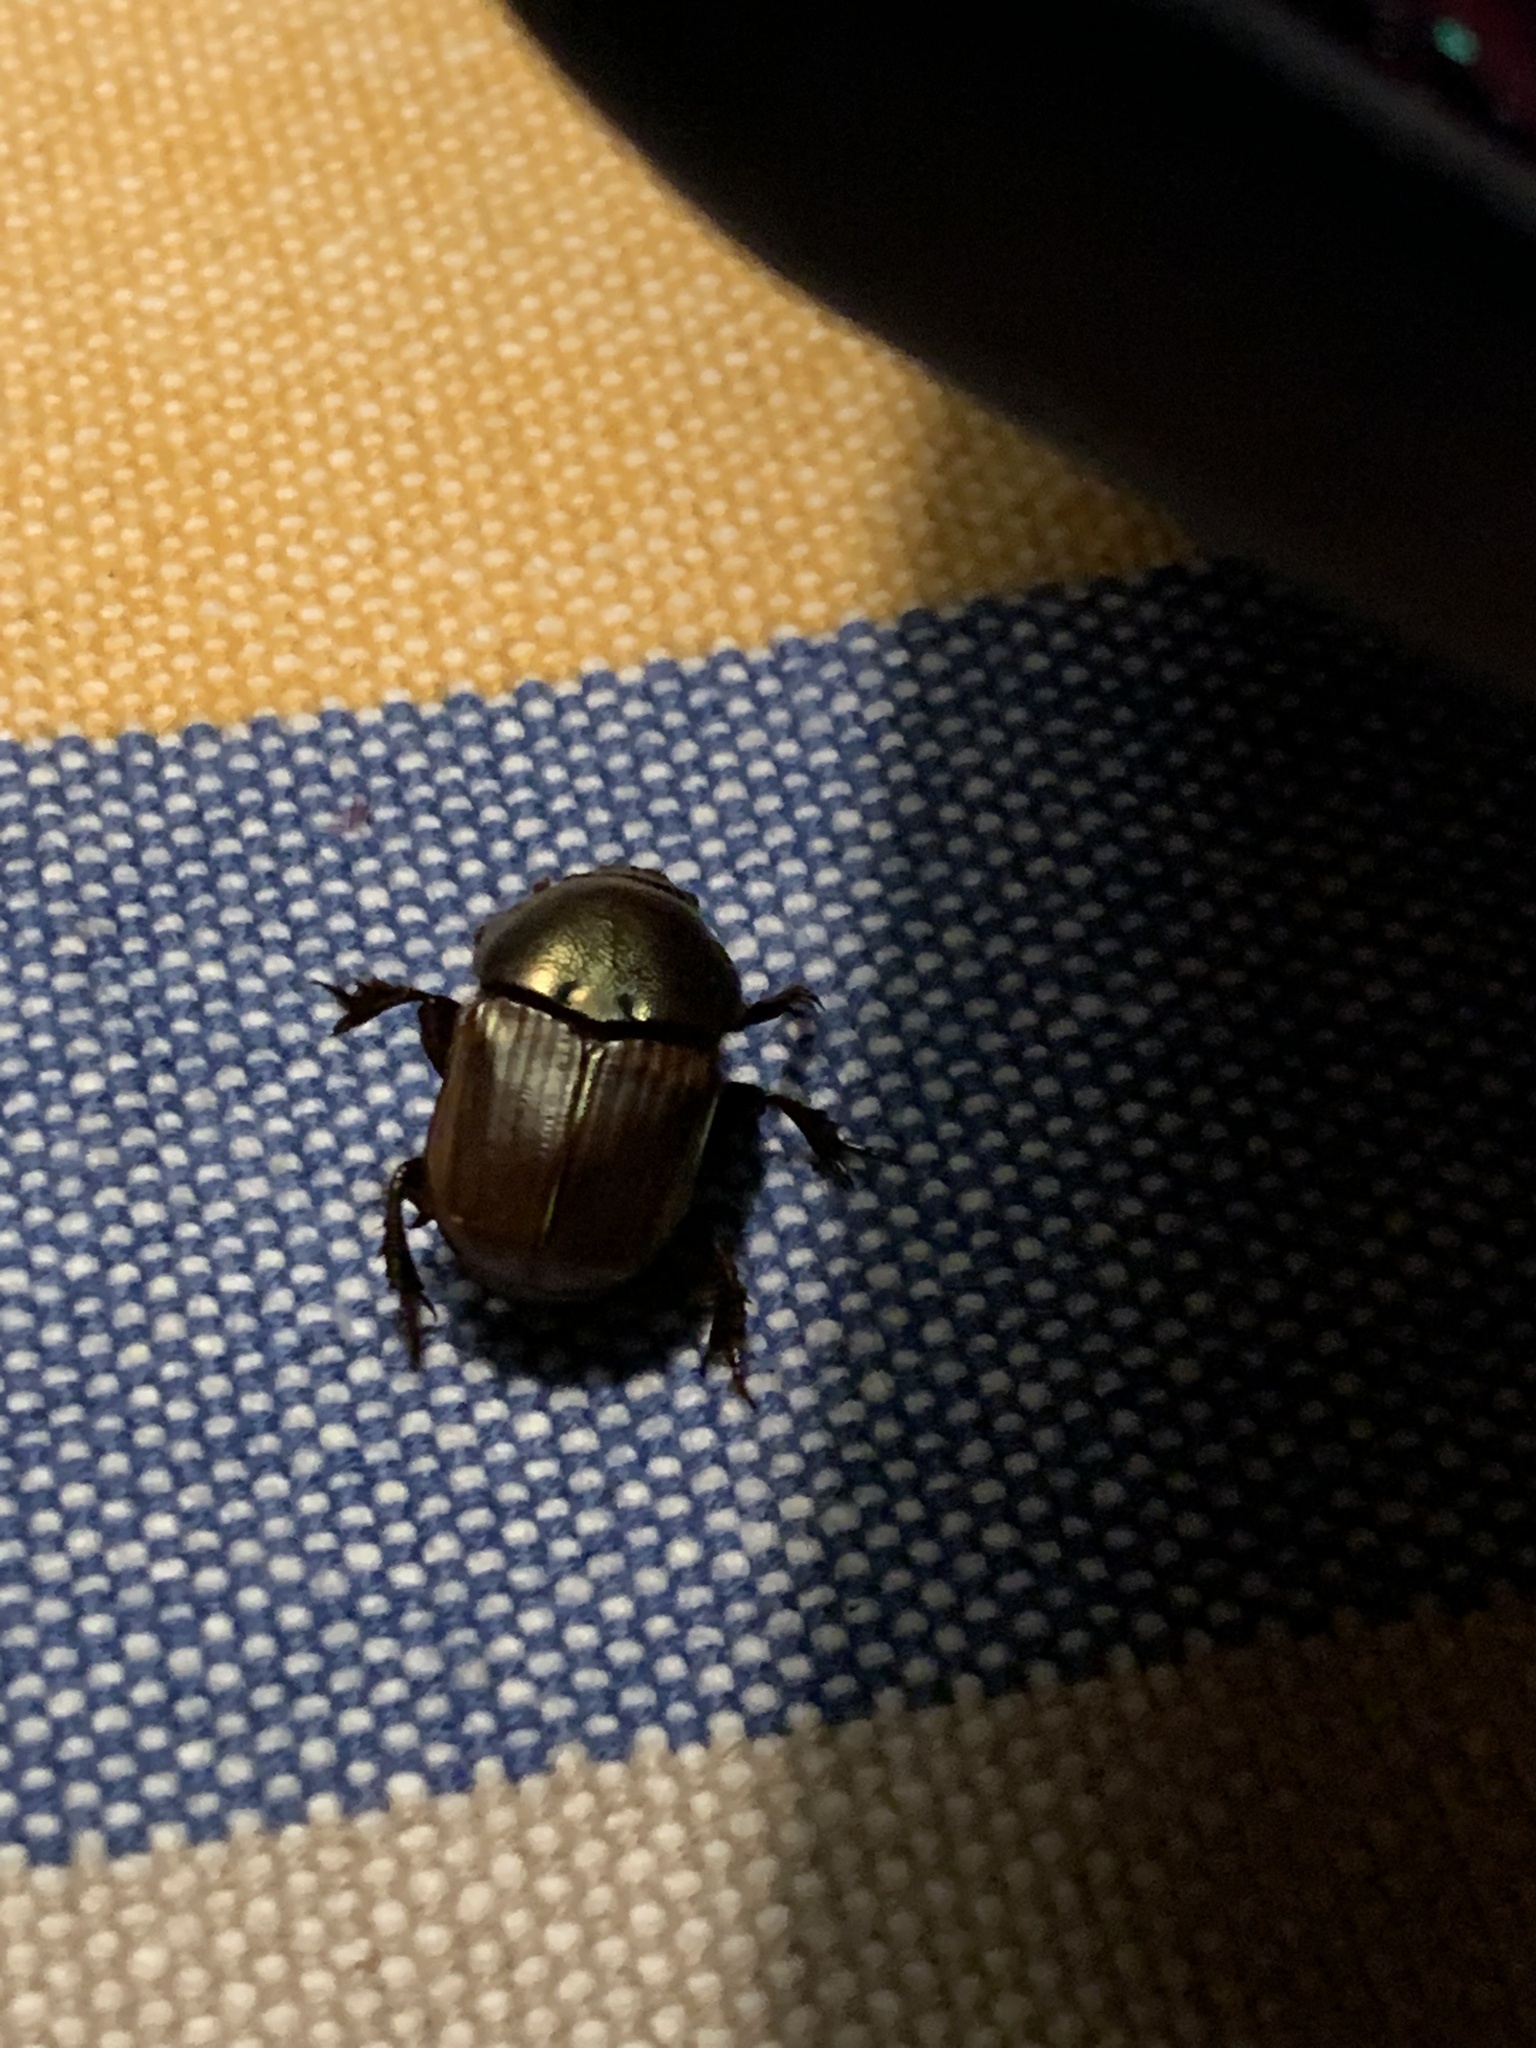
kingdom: Animalia
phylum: Arthropoda
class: Insecta
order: Coleoptera
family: Scarabaeidae
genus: Onitis
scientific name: Onitis alexis
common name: Alexis dung beetle
